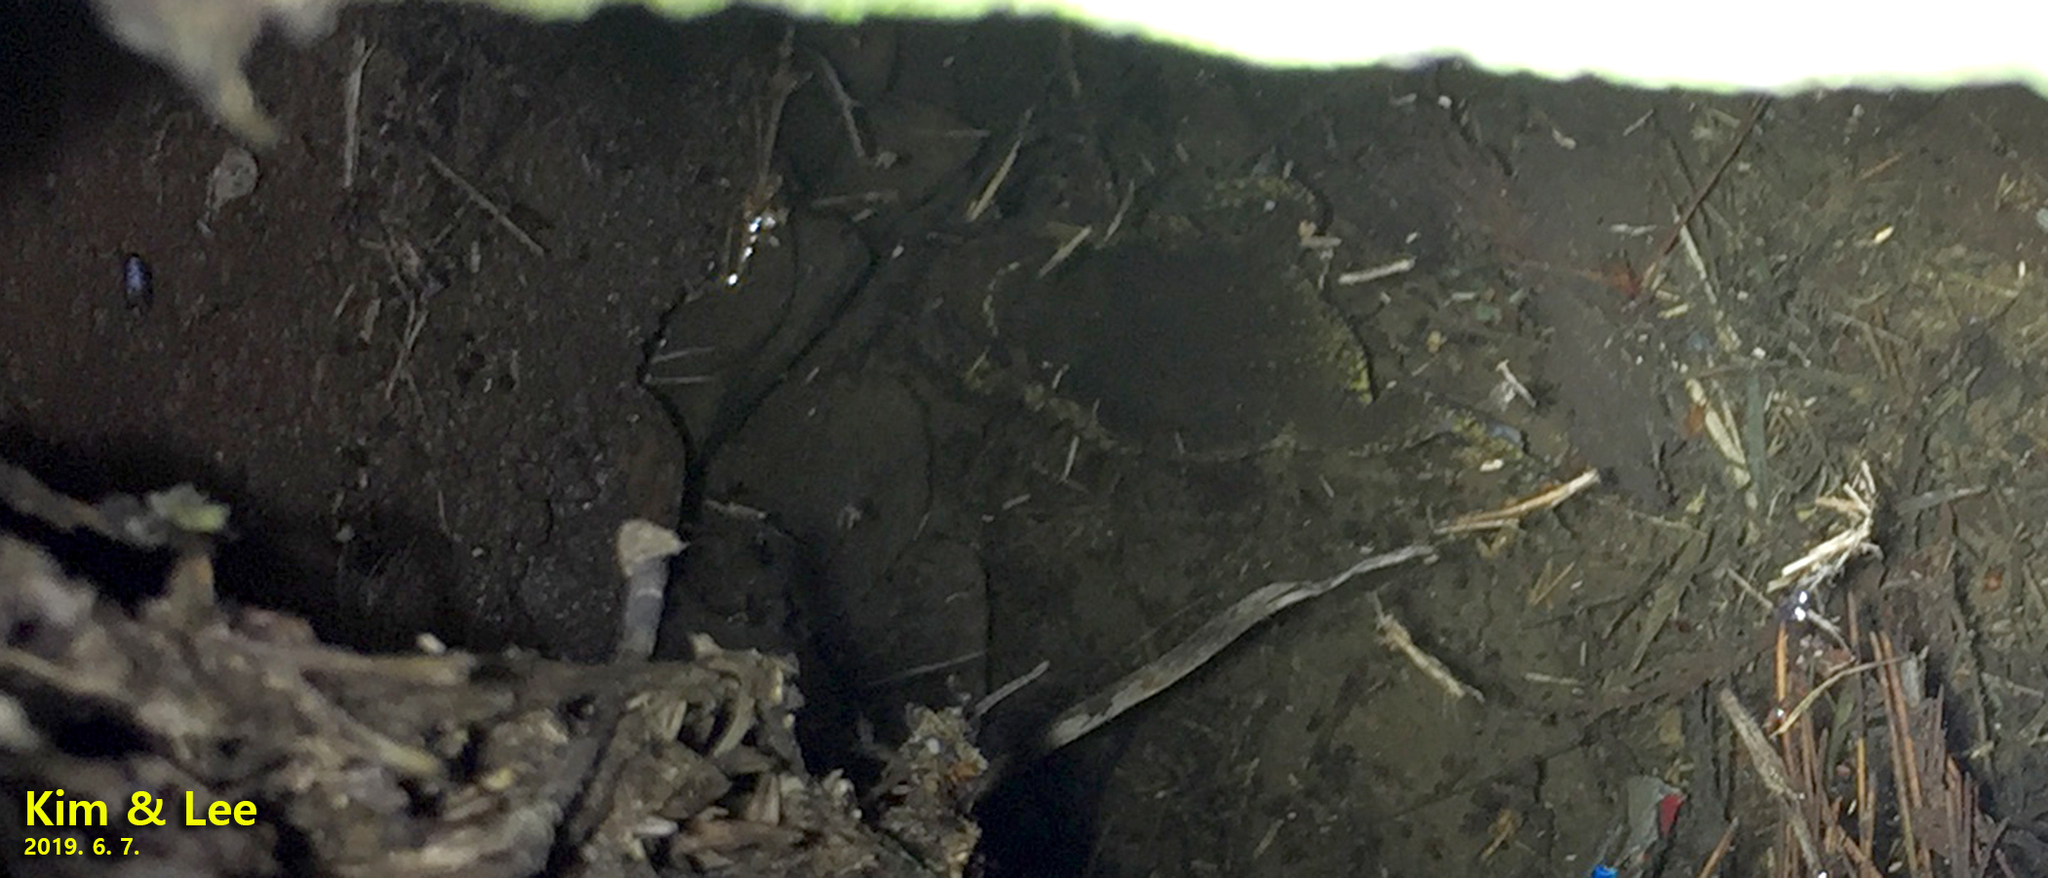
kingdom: Animalia
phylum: Chordata
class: Amphibia
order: Anura
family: Microhylidae
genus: Kaloula
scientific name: Kaloula borealis
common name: Boreal digging frog
